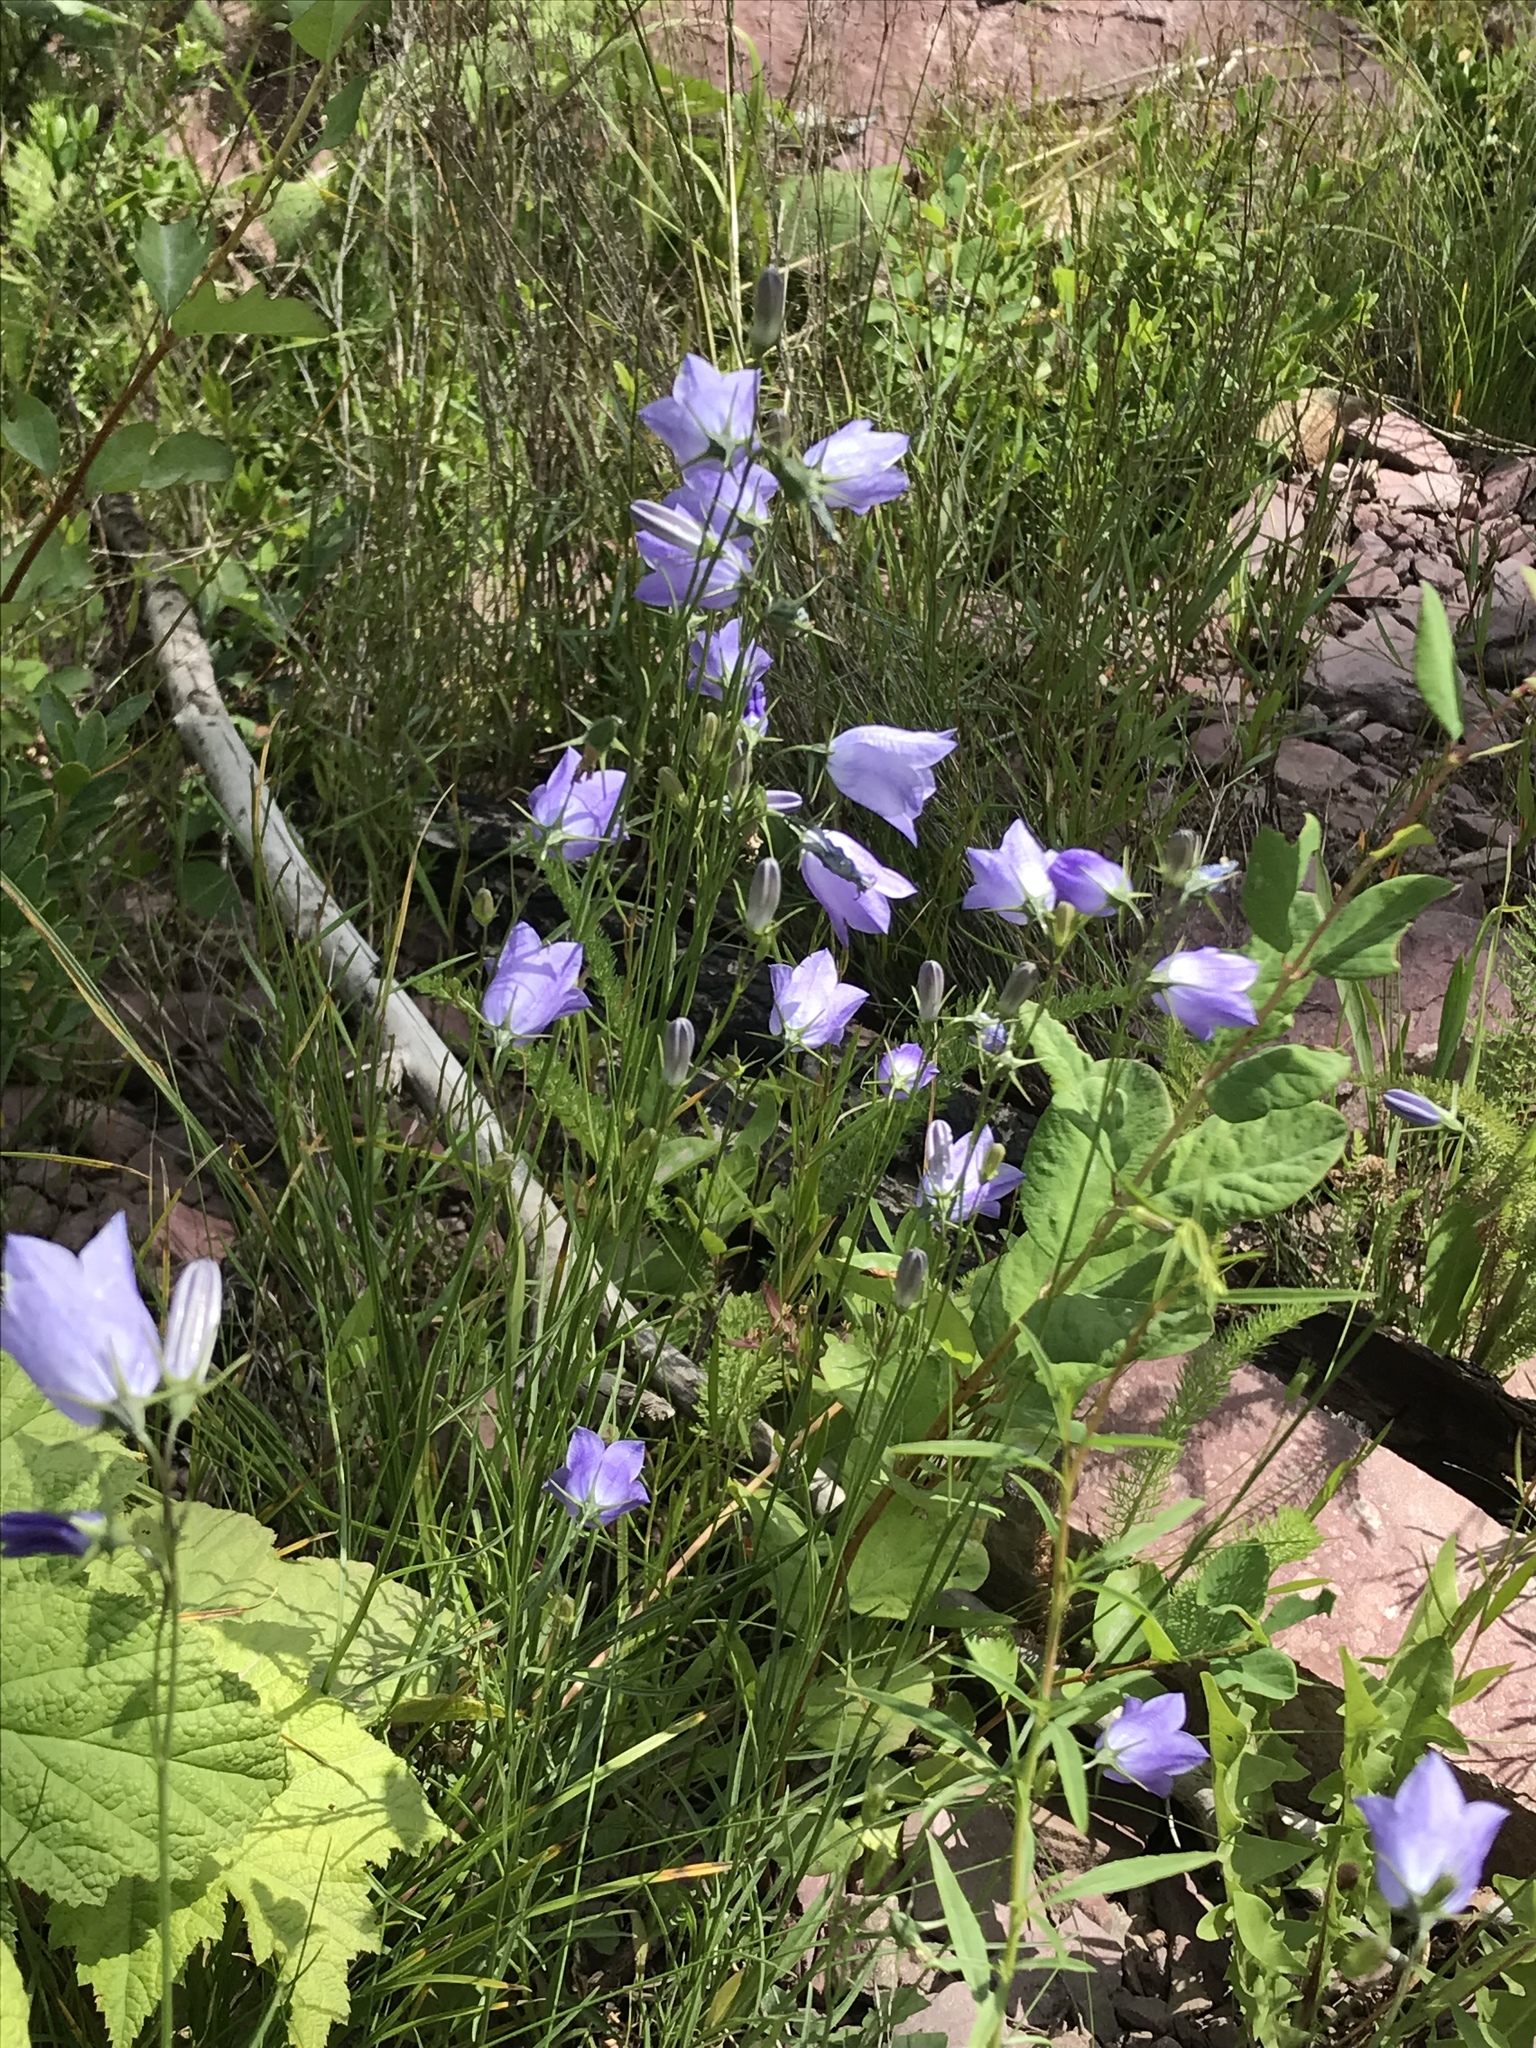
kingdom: Plantae
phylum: Tracheophyta
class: Magnoliopsida
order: Asterales
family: Campanulaceae
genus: Campanula
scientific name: Campanula petiolata
